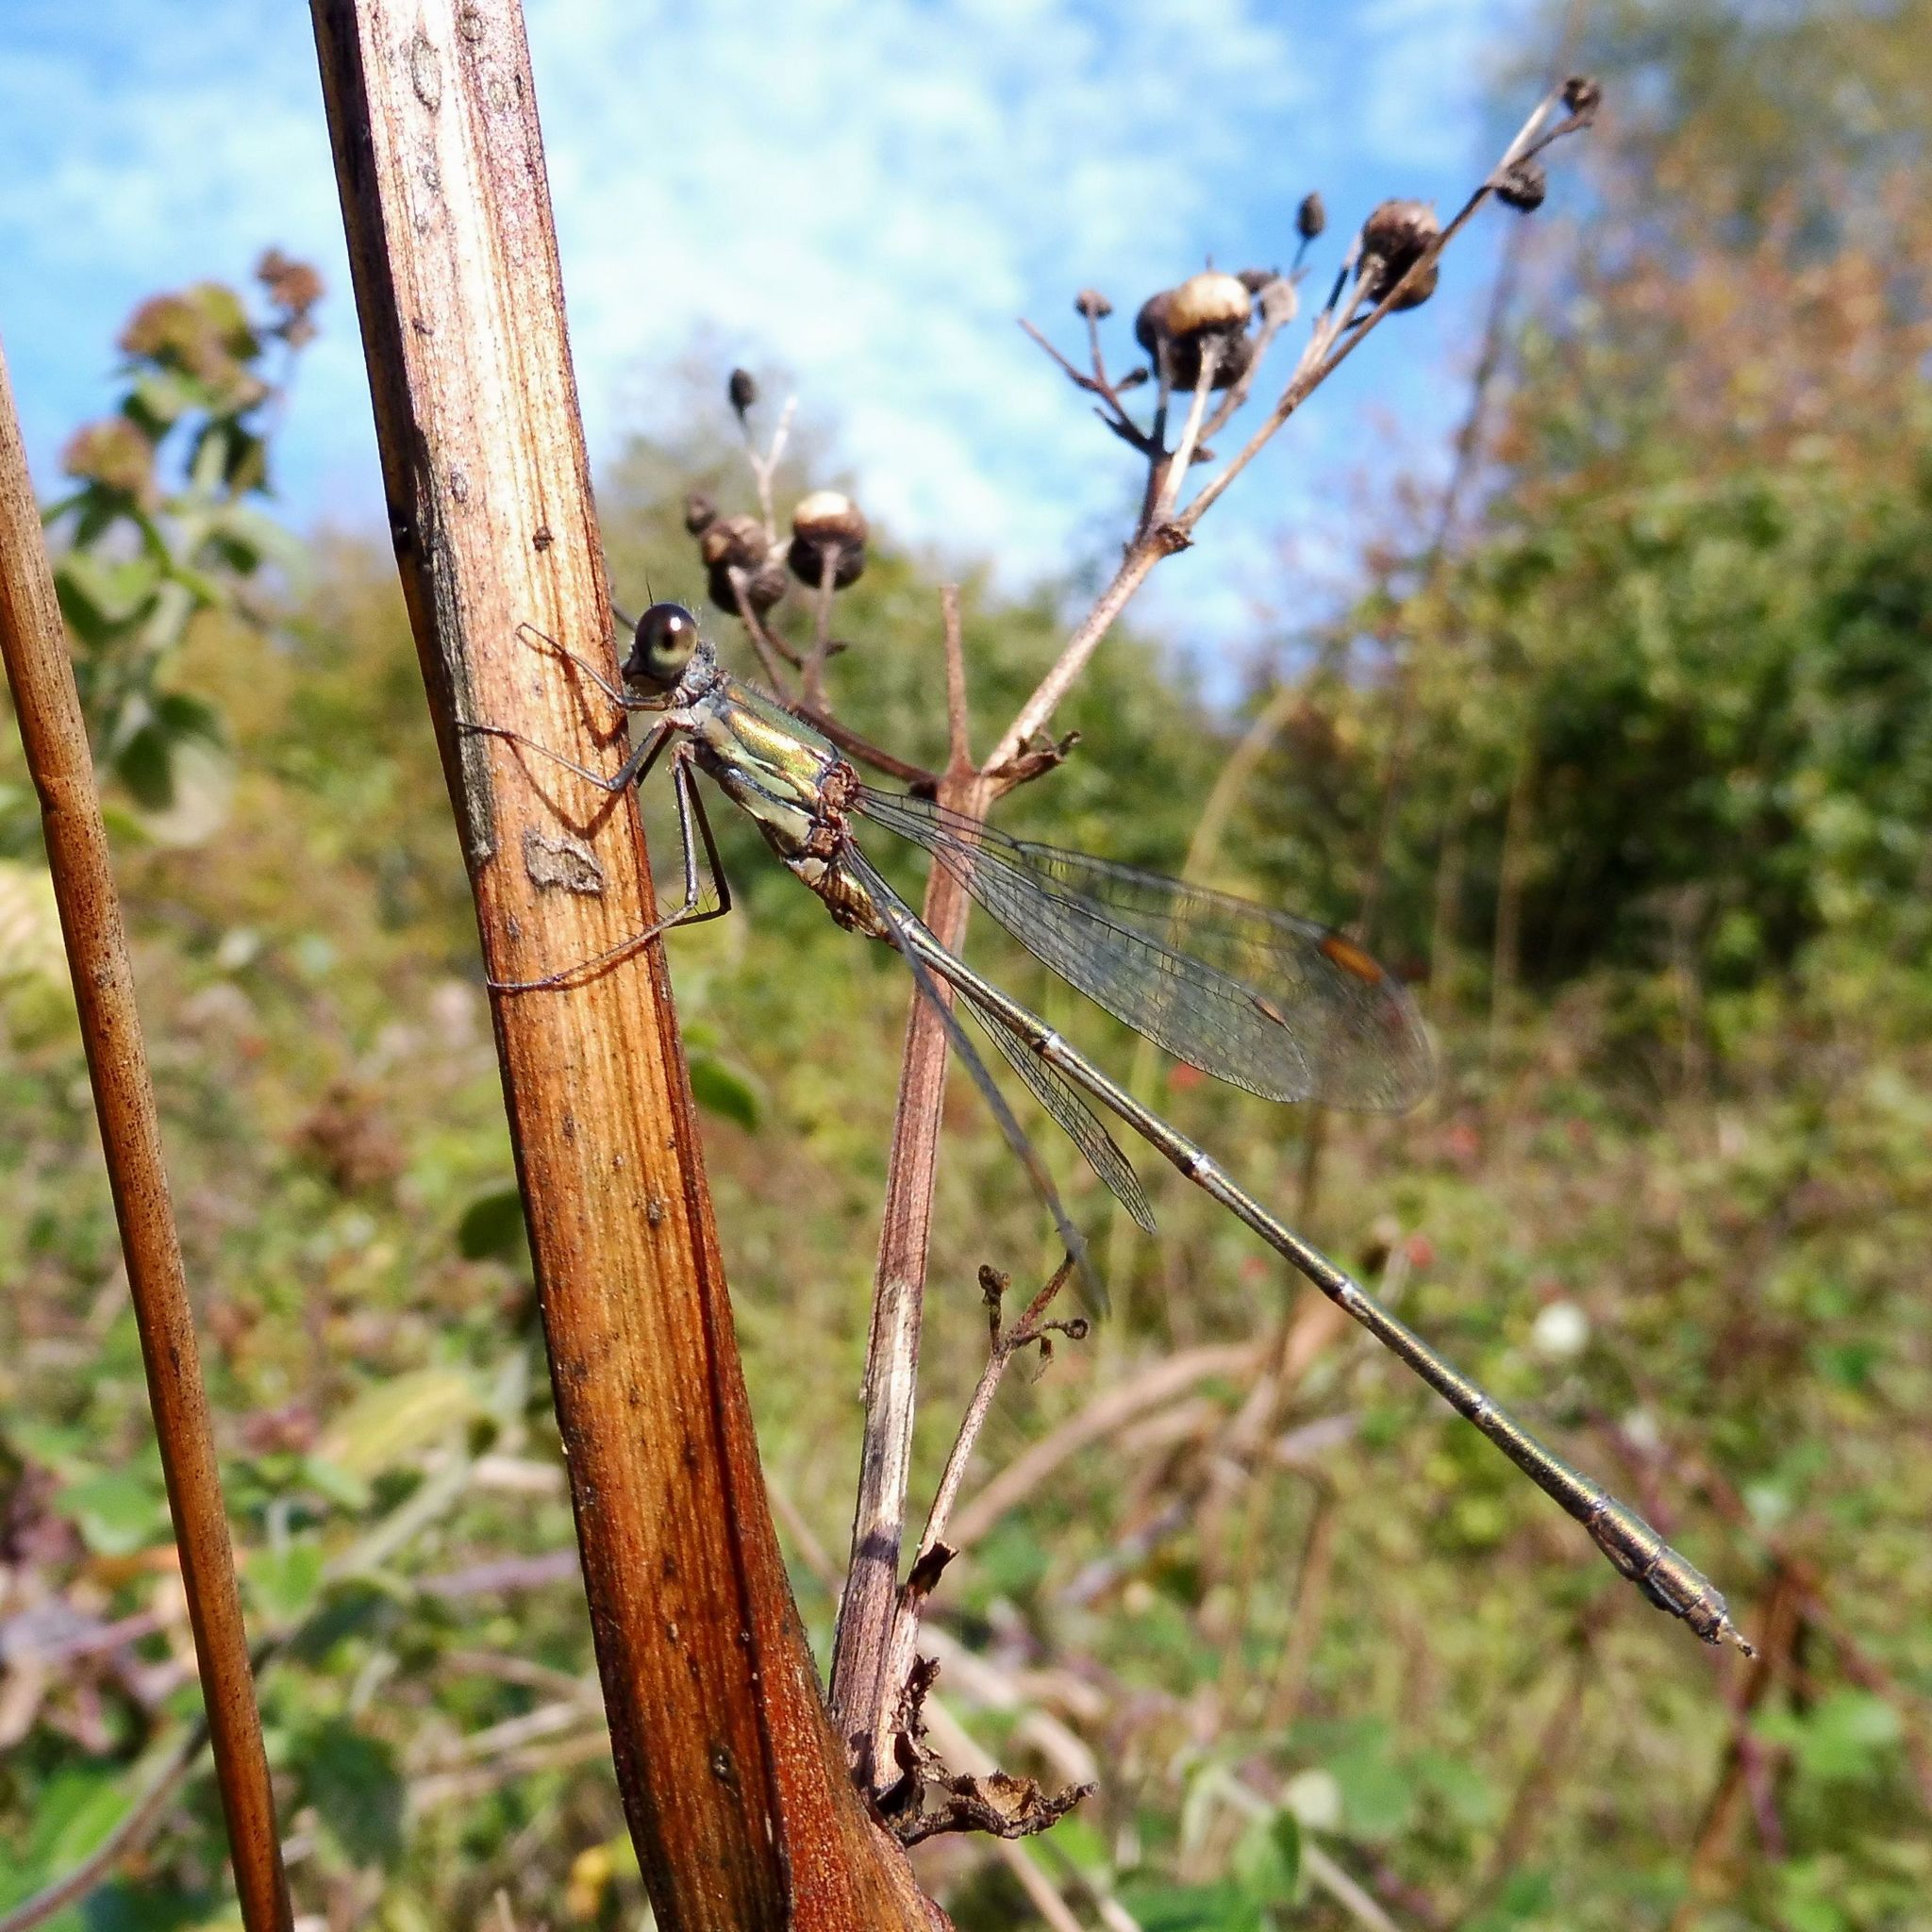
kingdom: Animalia
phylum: Arthropoda
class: Insecta
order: Odonata
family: Lestidae
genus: Chalcolestes
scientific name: Chalcolestes viridis
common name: Green emerald damselfly
